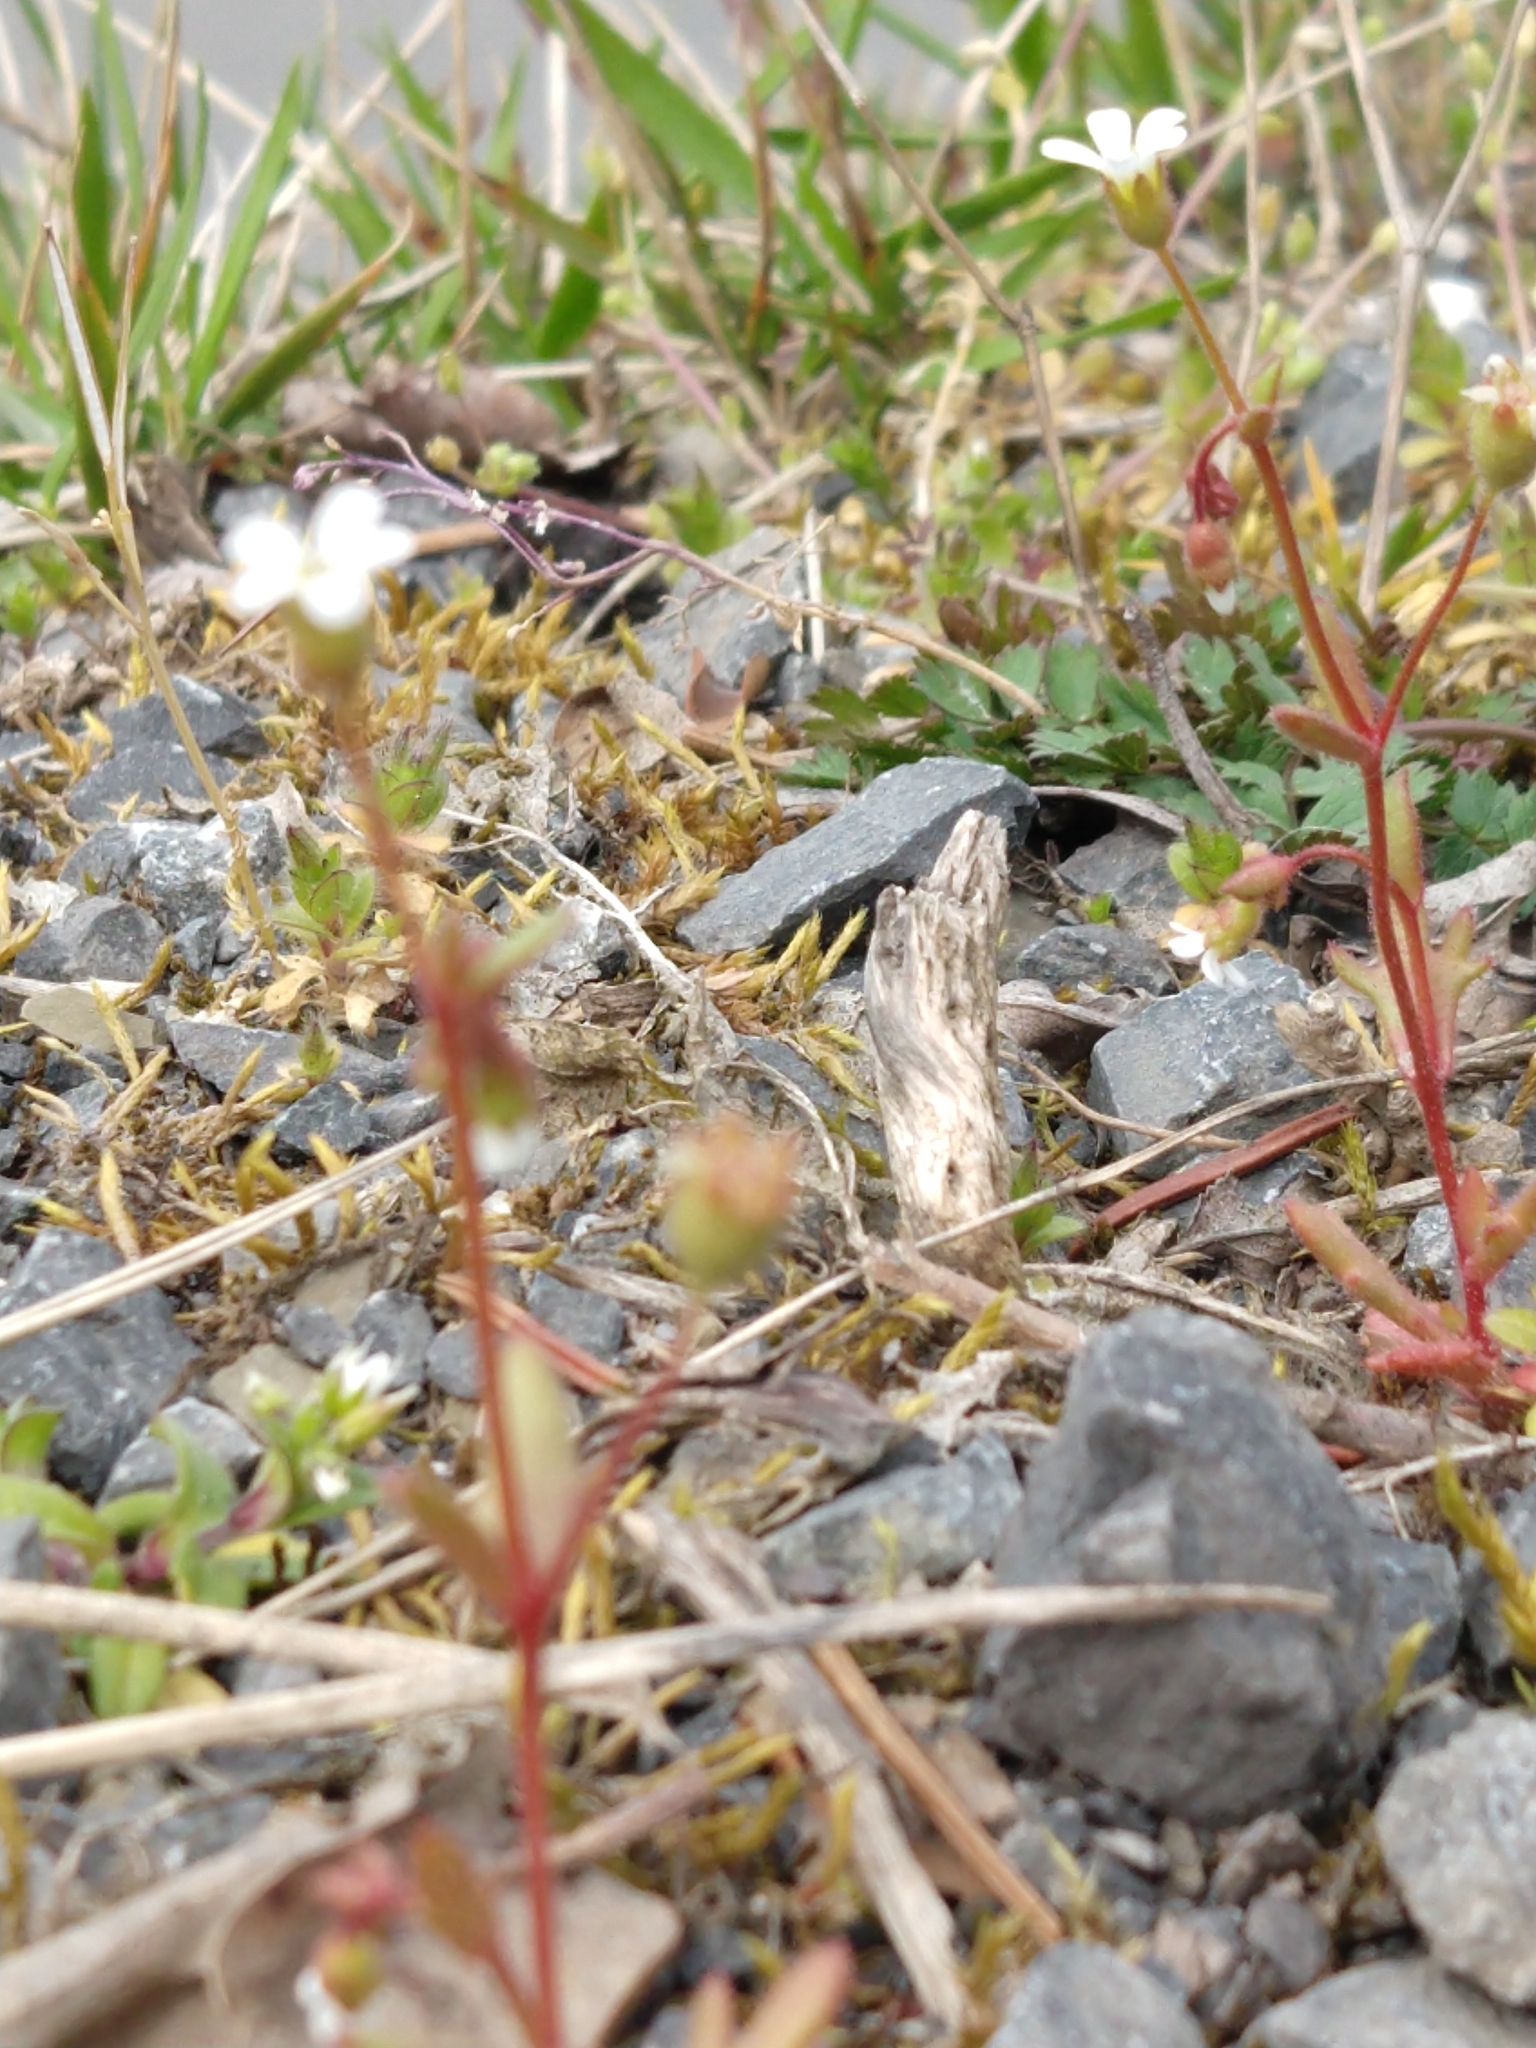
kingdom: Plantae
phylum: Tracheophyta
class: Magnoliopsida
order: Saxifragales
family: Saxifragaceae
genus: Saxifraga
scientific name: Saxifraga tridactylites
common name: Rue-leaved saxifrage
